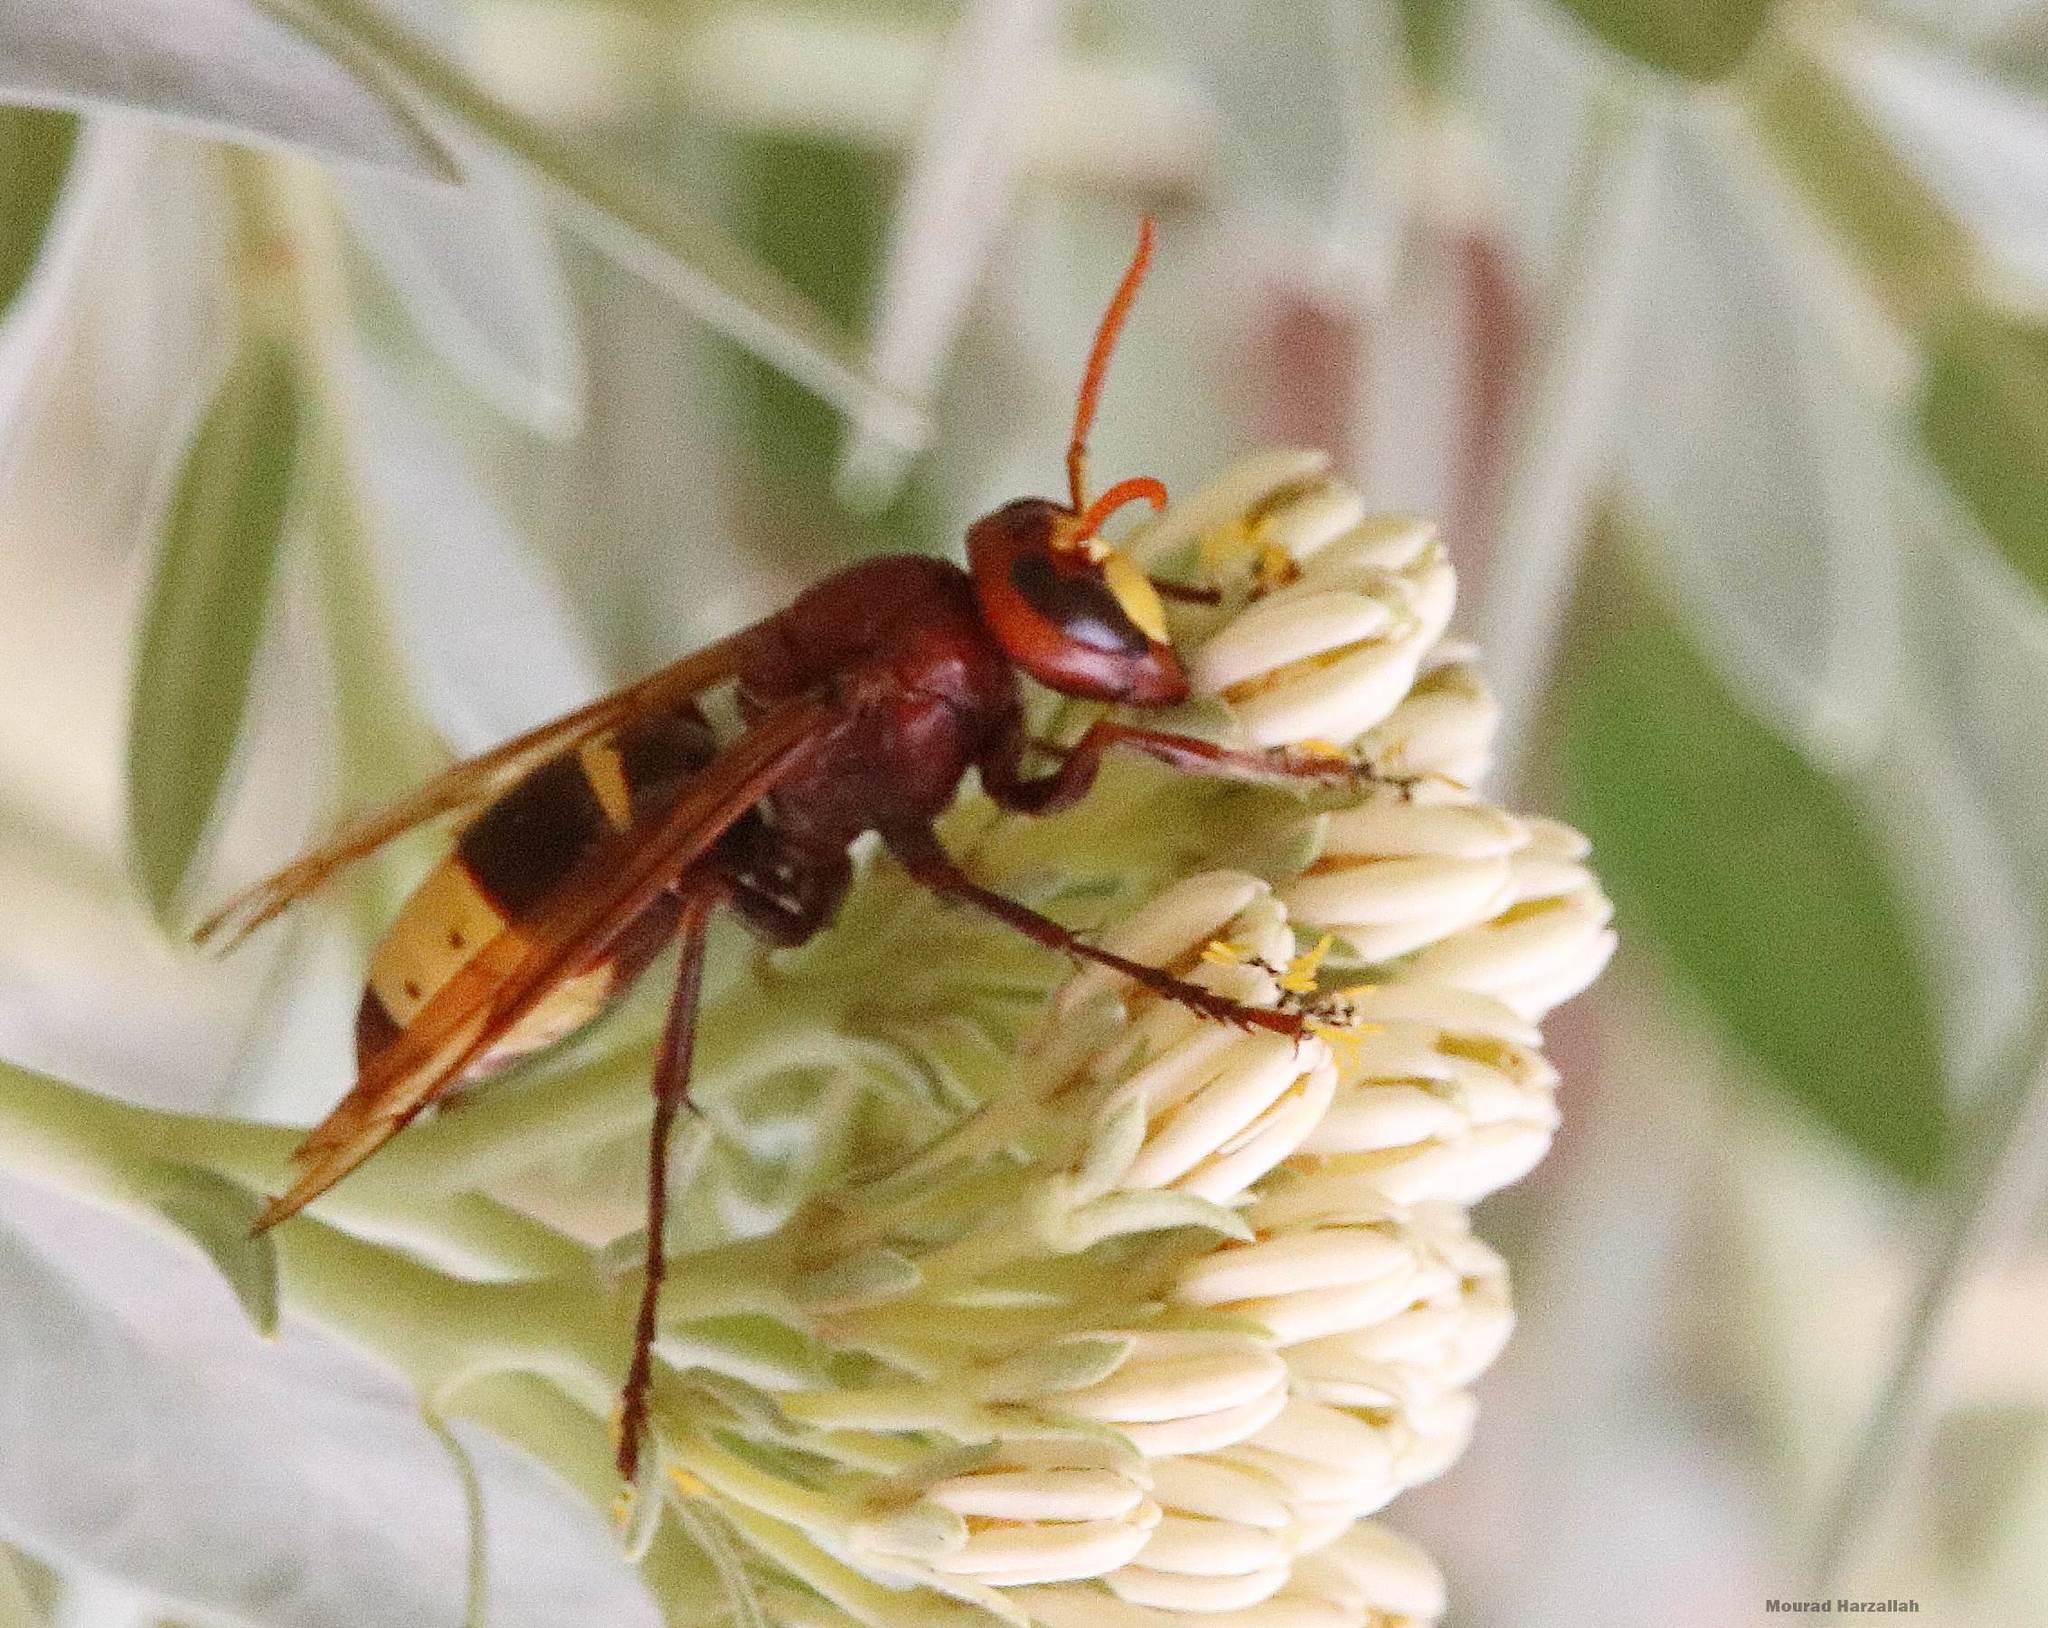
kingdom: Animalia
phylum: Arthropoda
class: Insecta
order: Hymenoptera
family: Vespidae
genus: Vespa
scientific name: Vespa orientalis
